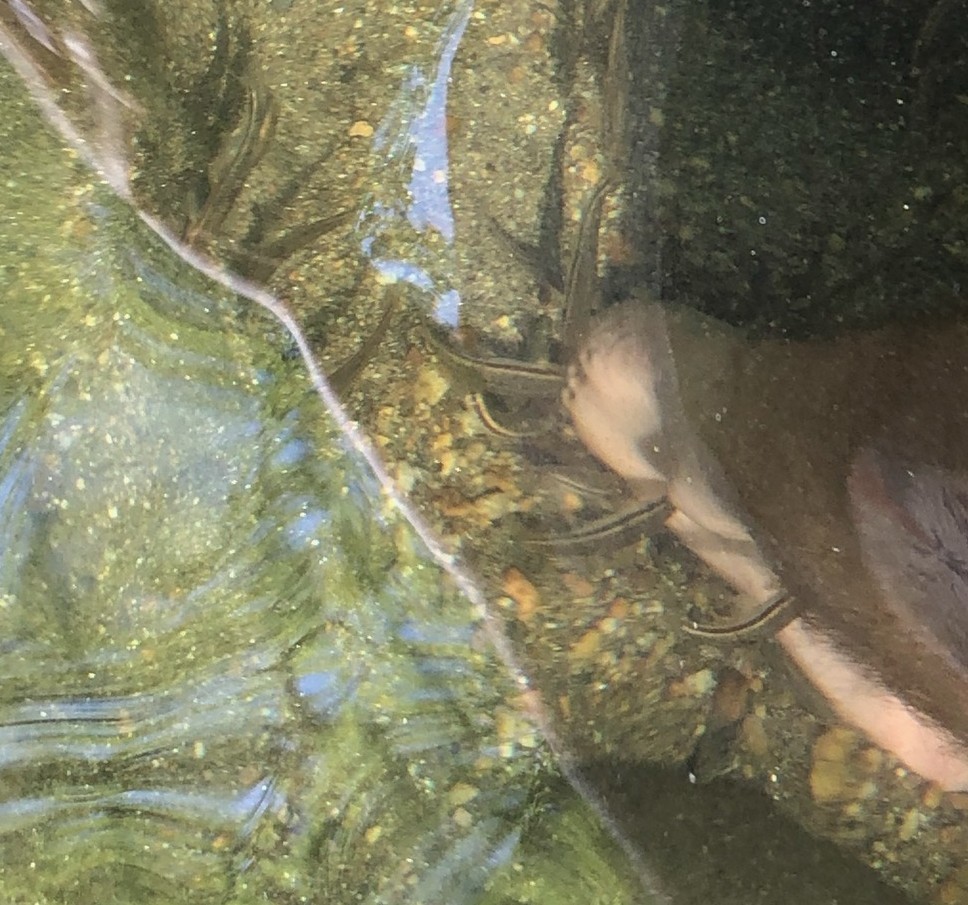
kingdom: Animalia
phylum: Chordata
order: Cypriniformes
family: Cyprinidae
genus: Rhinichthys
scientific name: Rhinichthys atratulus
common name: Eastern blacknose dace
